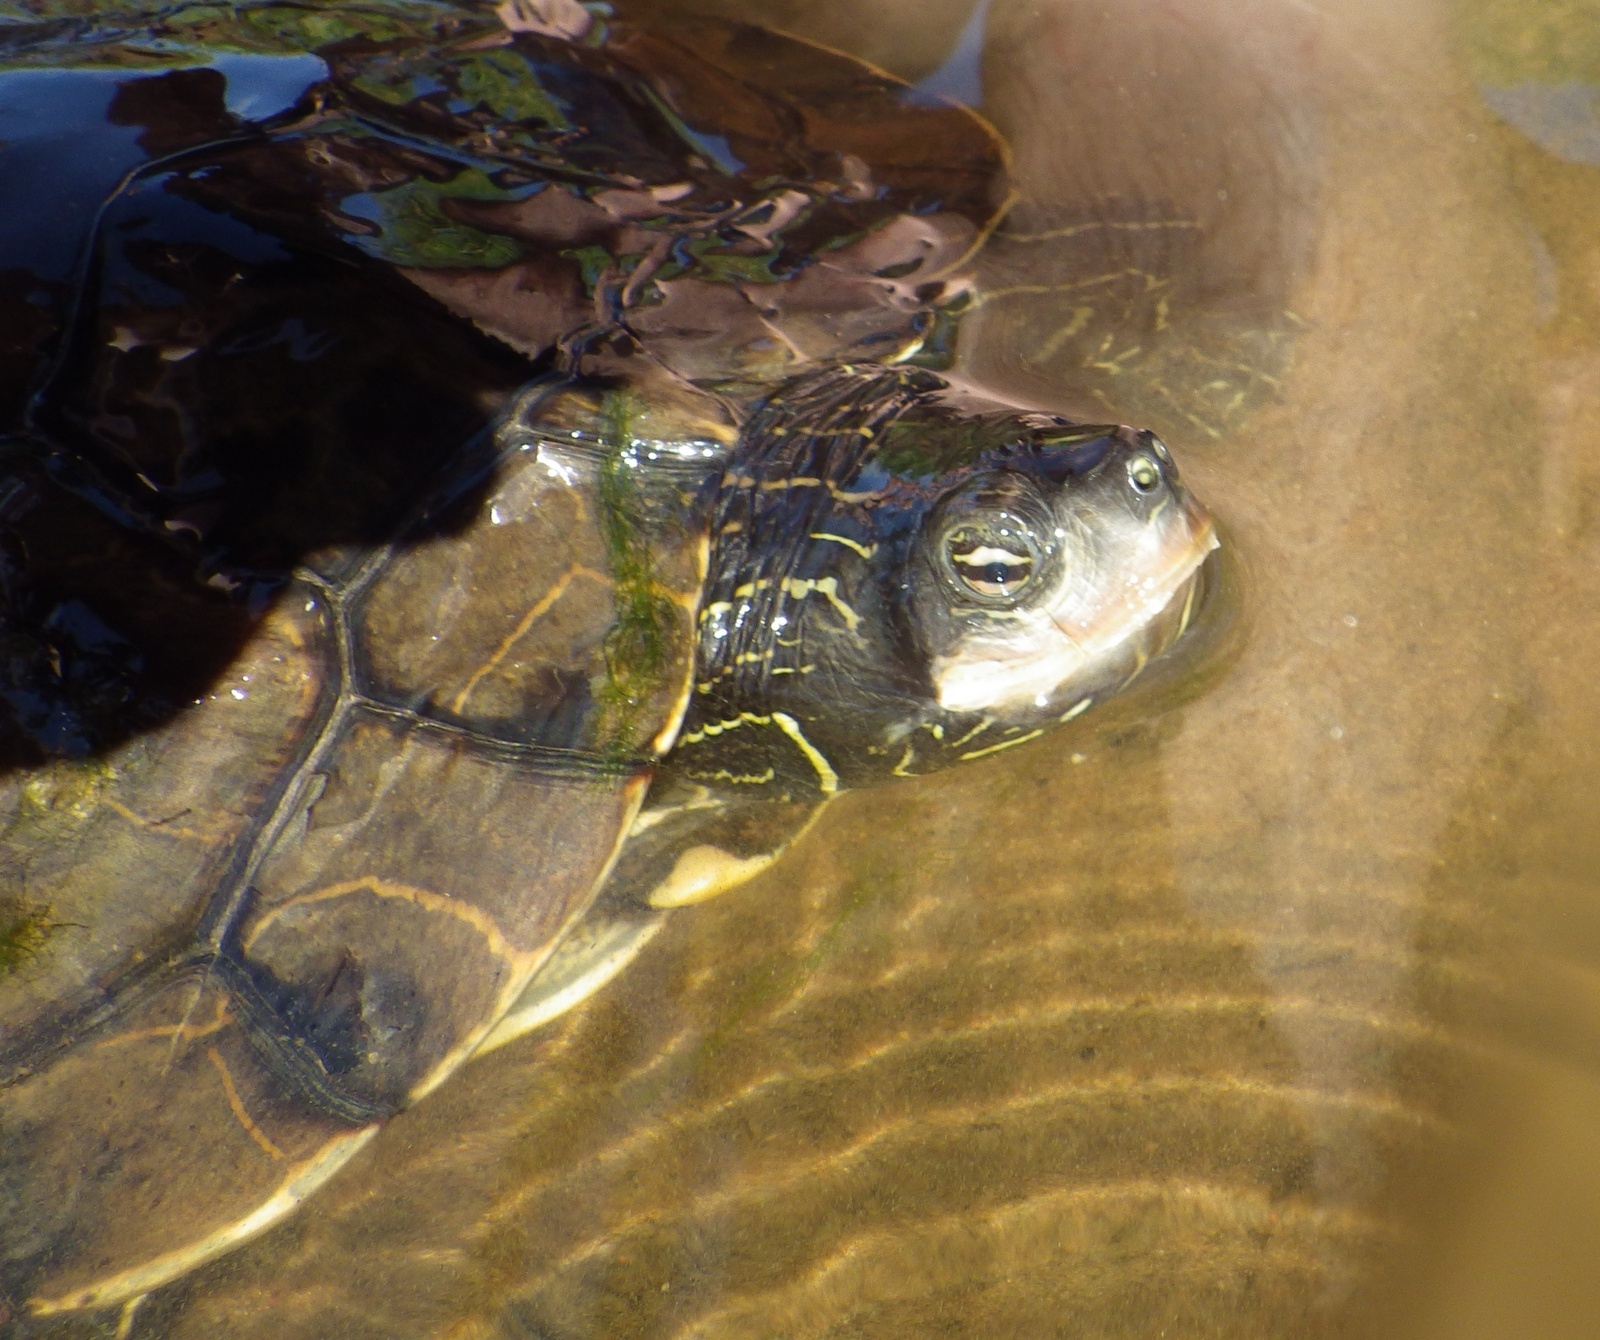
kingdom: Animalia
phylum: Chordata
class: Testudines
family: Emydidae
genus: Graptemys
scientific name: Graptemys geographica
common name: Common map turtle
